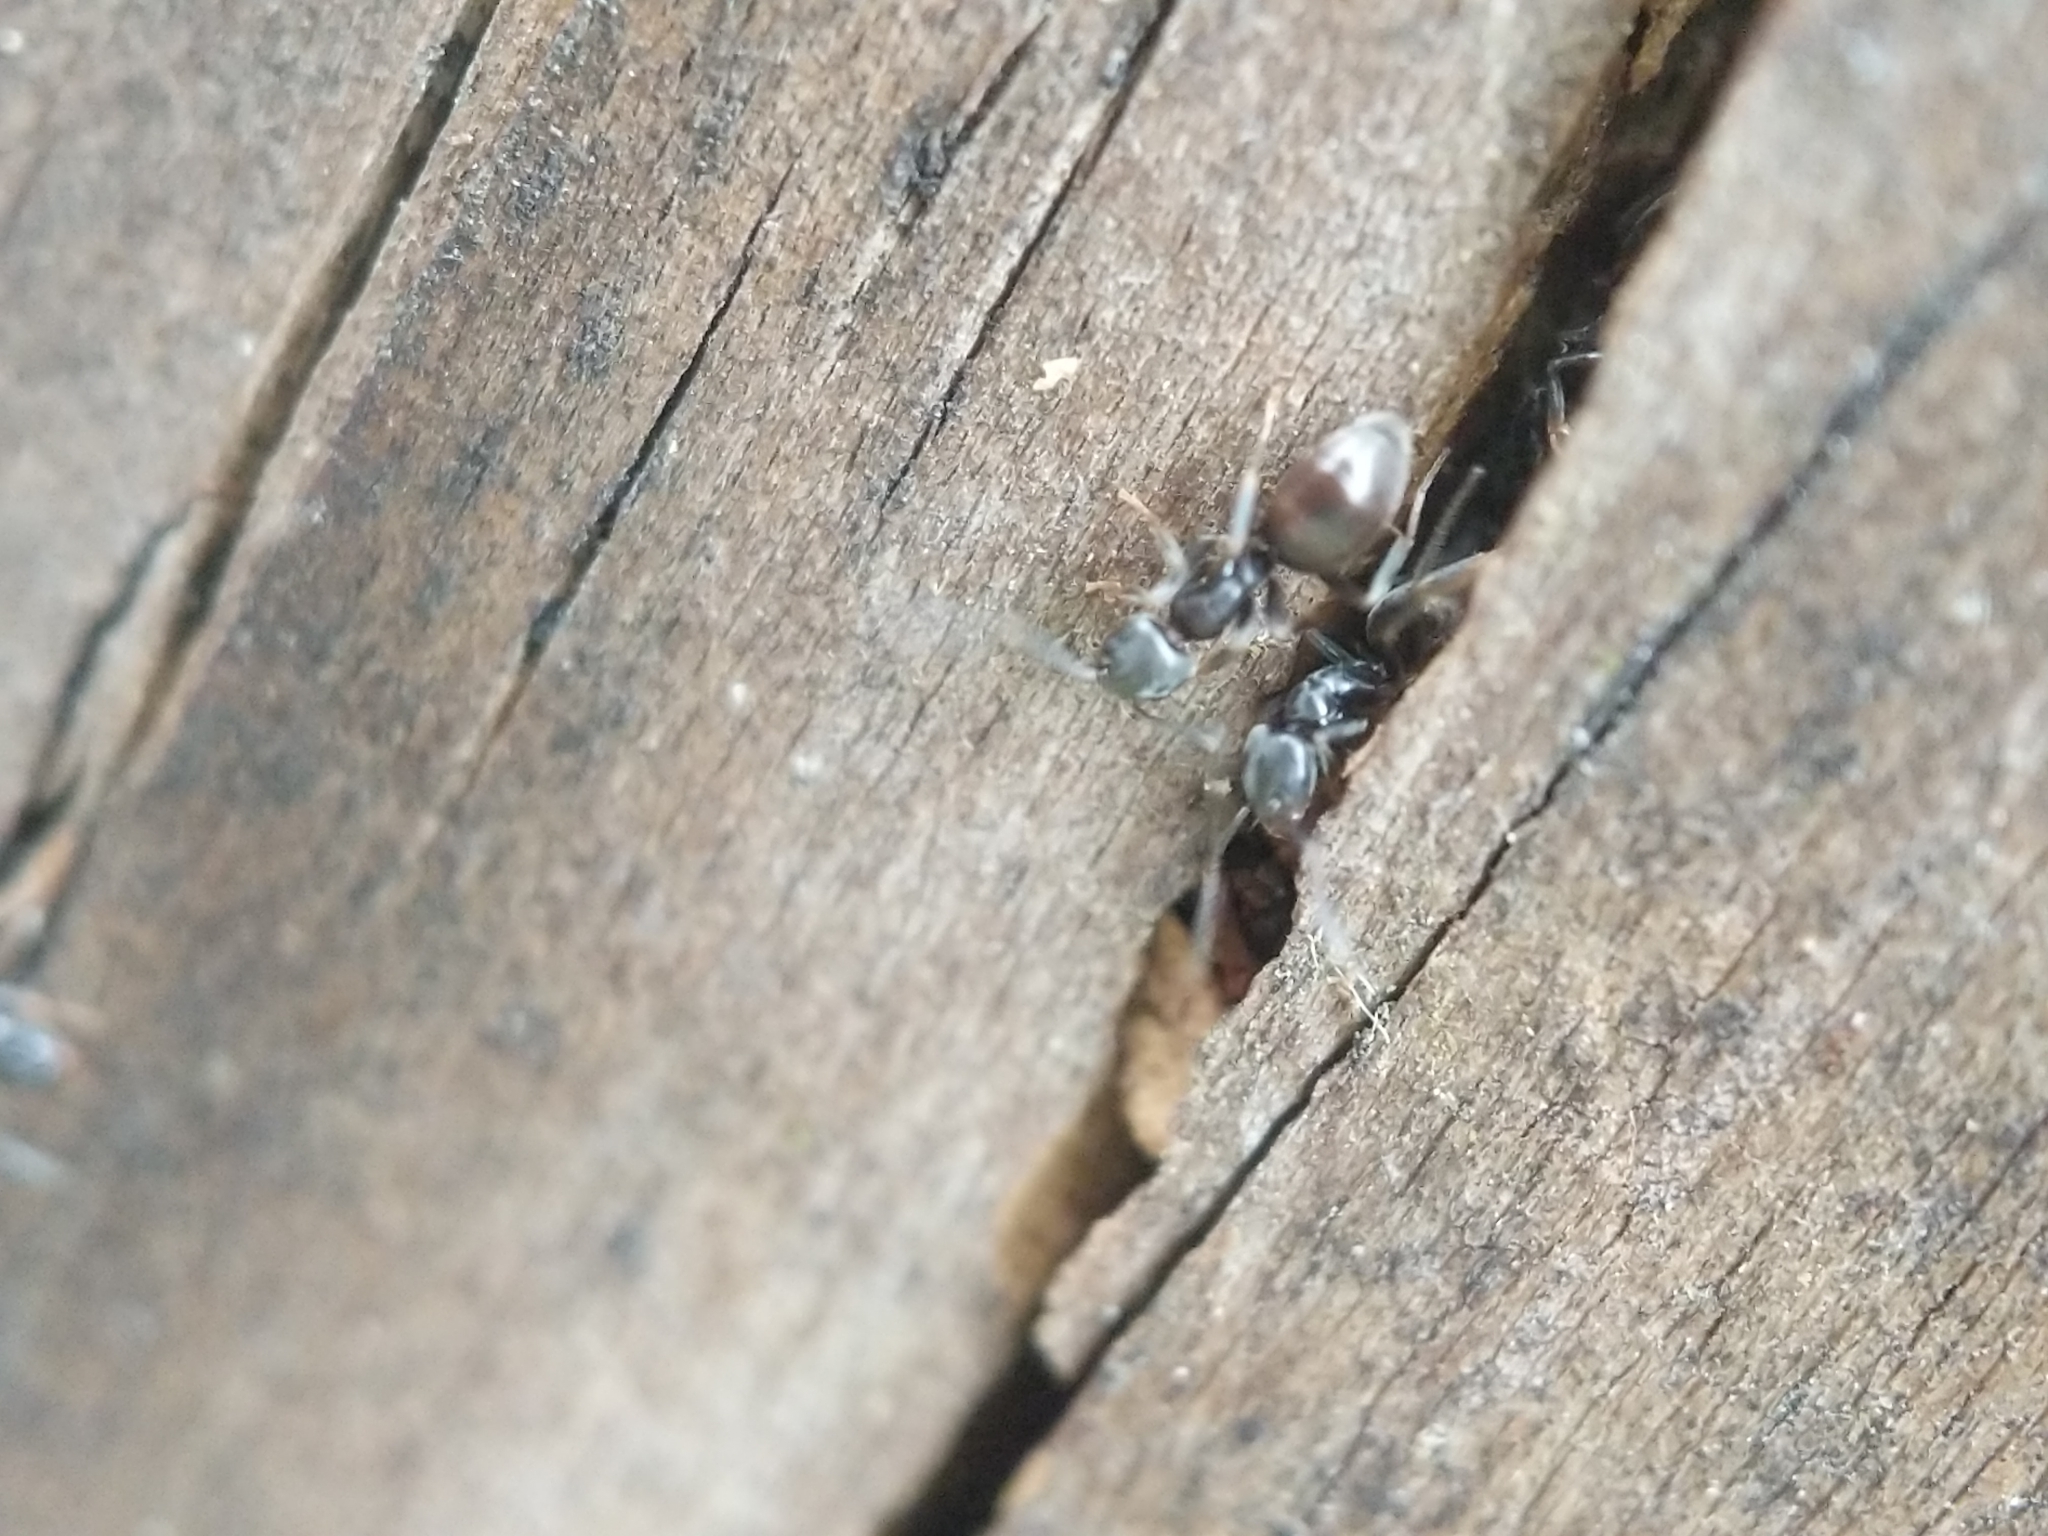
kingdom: Animalia
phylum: Arthropoda
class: Insecta
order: Hymenoptera
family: Formicidae
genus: Tapinoma
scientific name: Tapinoma sessile
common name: Odorous house ant
